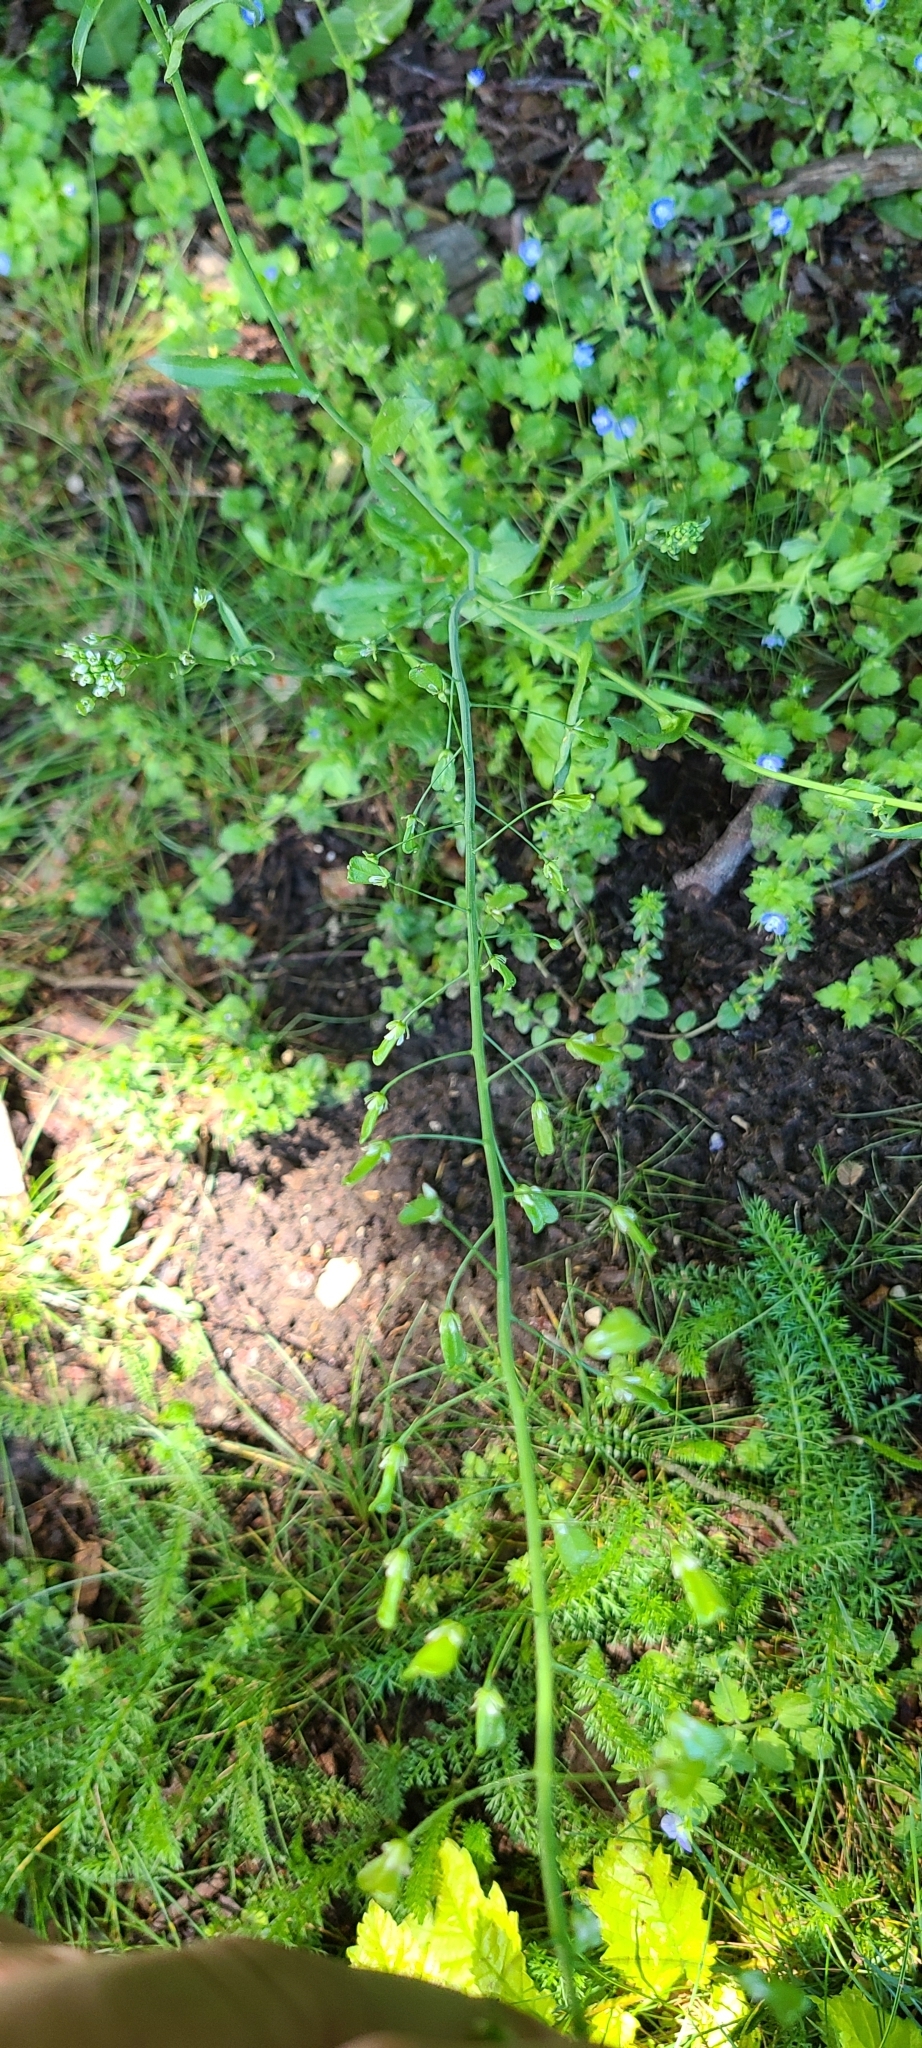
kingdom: Plantae
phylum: Tracheophyta
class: Magnoliopsida
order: Brassicales
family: Brassicaceae
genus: Capsella
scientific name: Capsella bursa-pastoris
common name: Shepherd's purse
